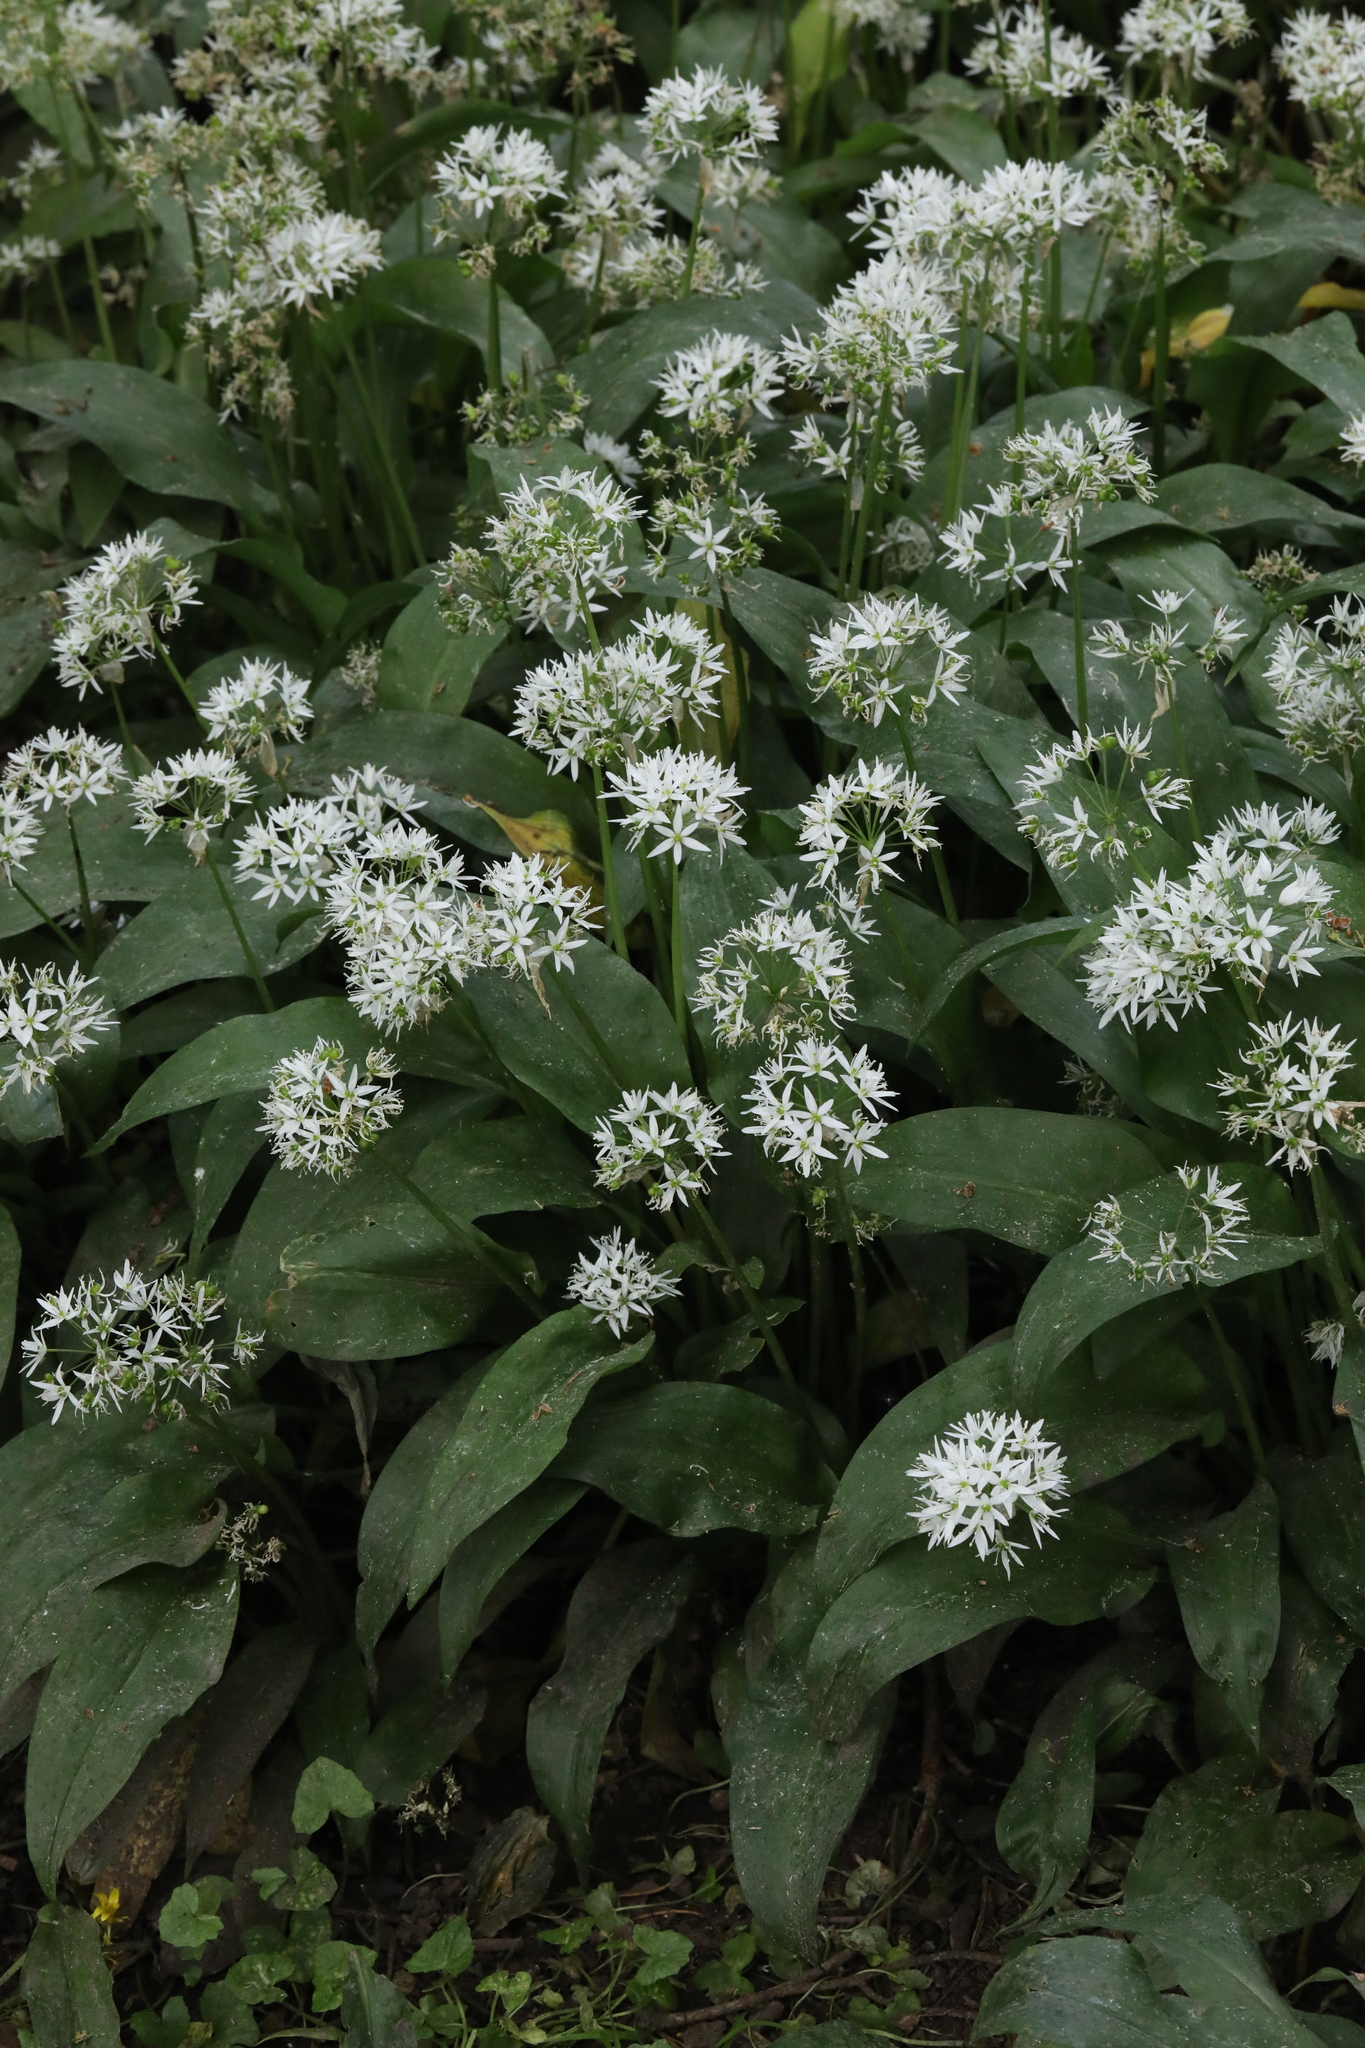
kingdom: Plantae
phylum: Tracheophyta
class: Liliopsida
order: Asparagales
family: Amaryllidaceae
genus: Allium
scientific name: Allium ursinum
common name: Ramsons
